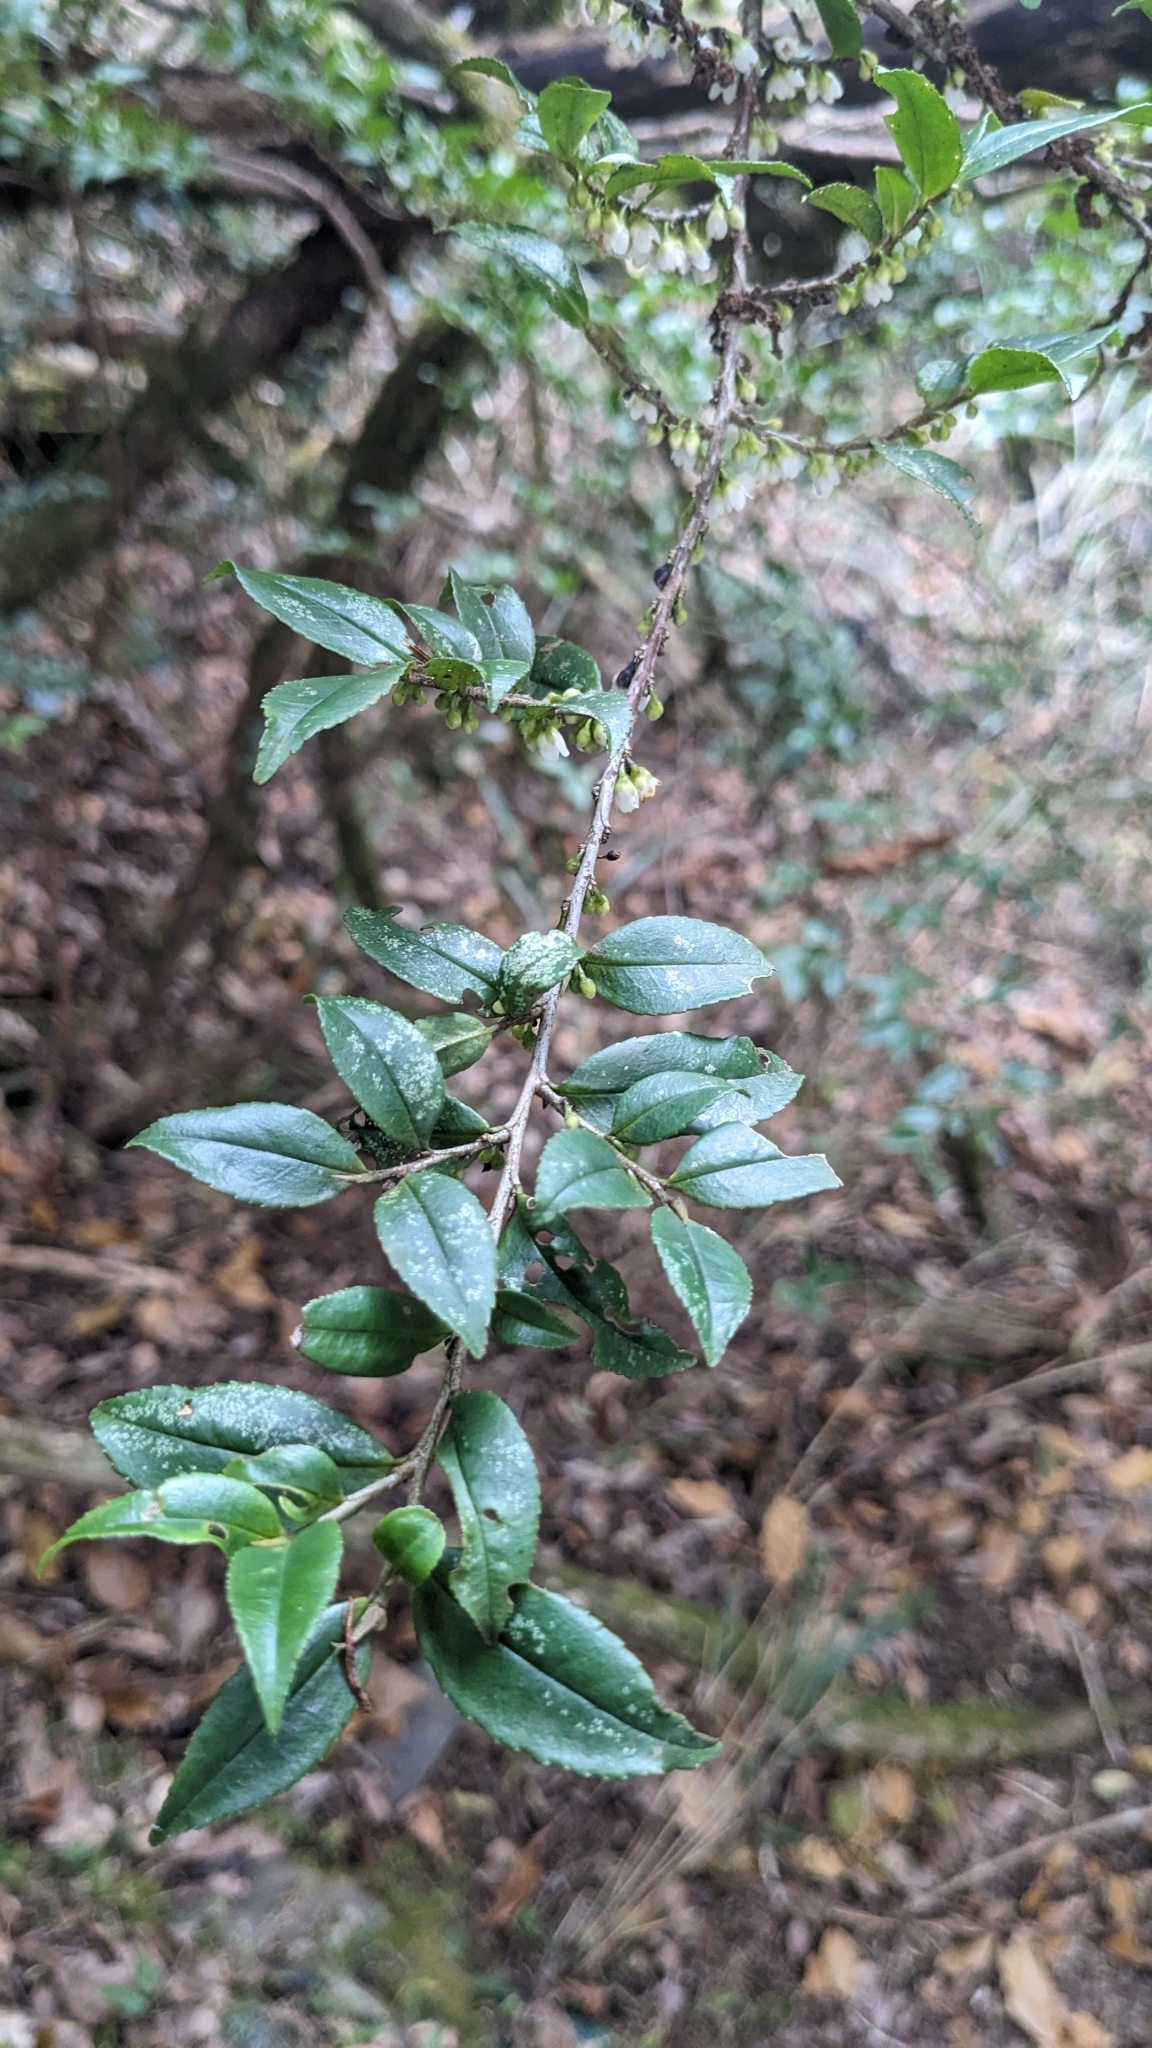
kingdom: Plantae
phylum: Tracheophyta
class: Magnoliopsida
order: Ericales
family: Pentaphylacaceae
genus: Eurya
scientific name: Eurya crenatifolia
